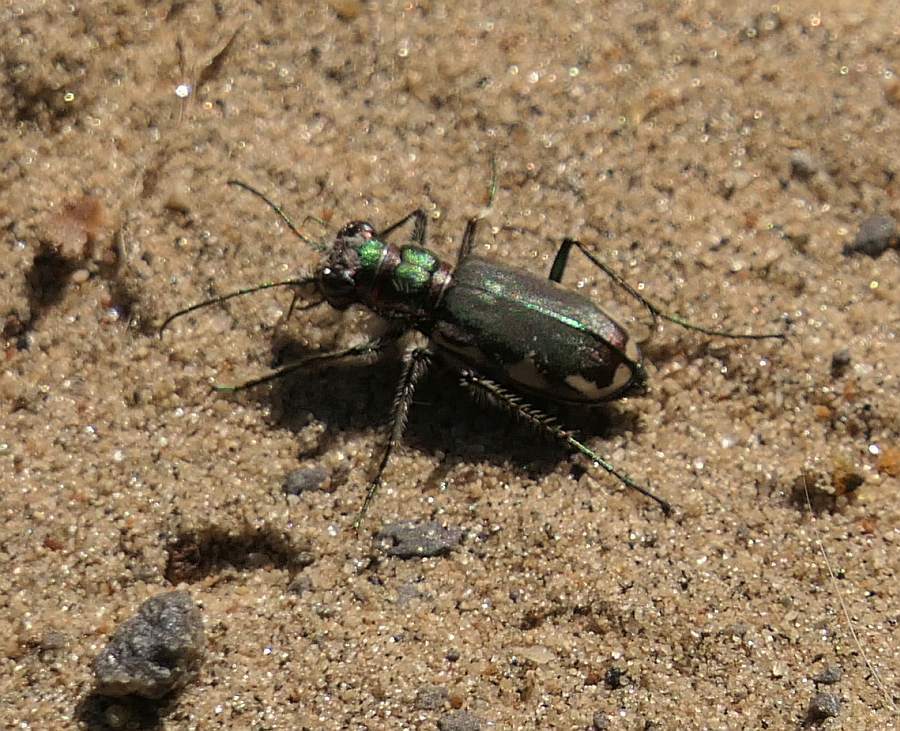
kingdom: Animalia
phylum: Arthropoda
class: Insecta
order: Coleoptera
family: Carabidae
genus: Cicindela
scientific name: Cicindela scutellaris
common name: Festive tiger beetle
